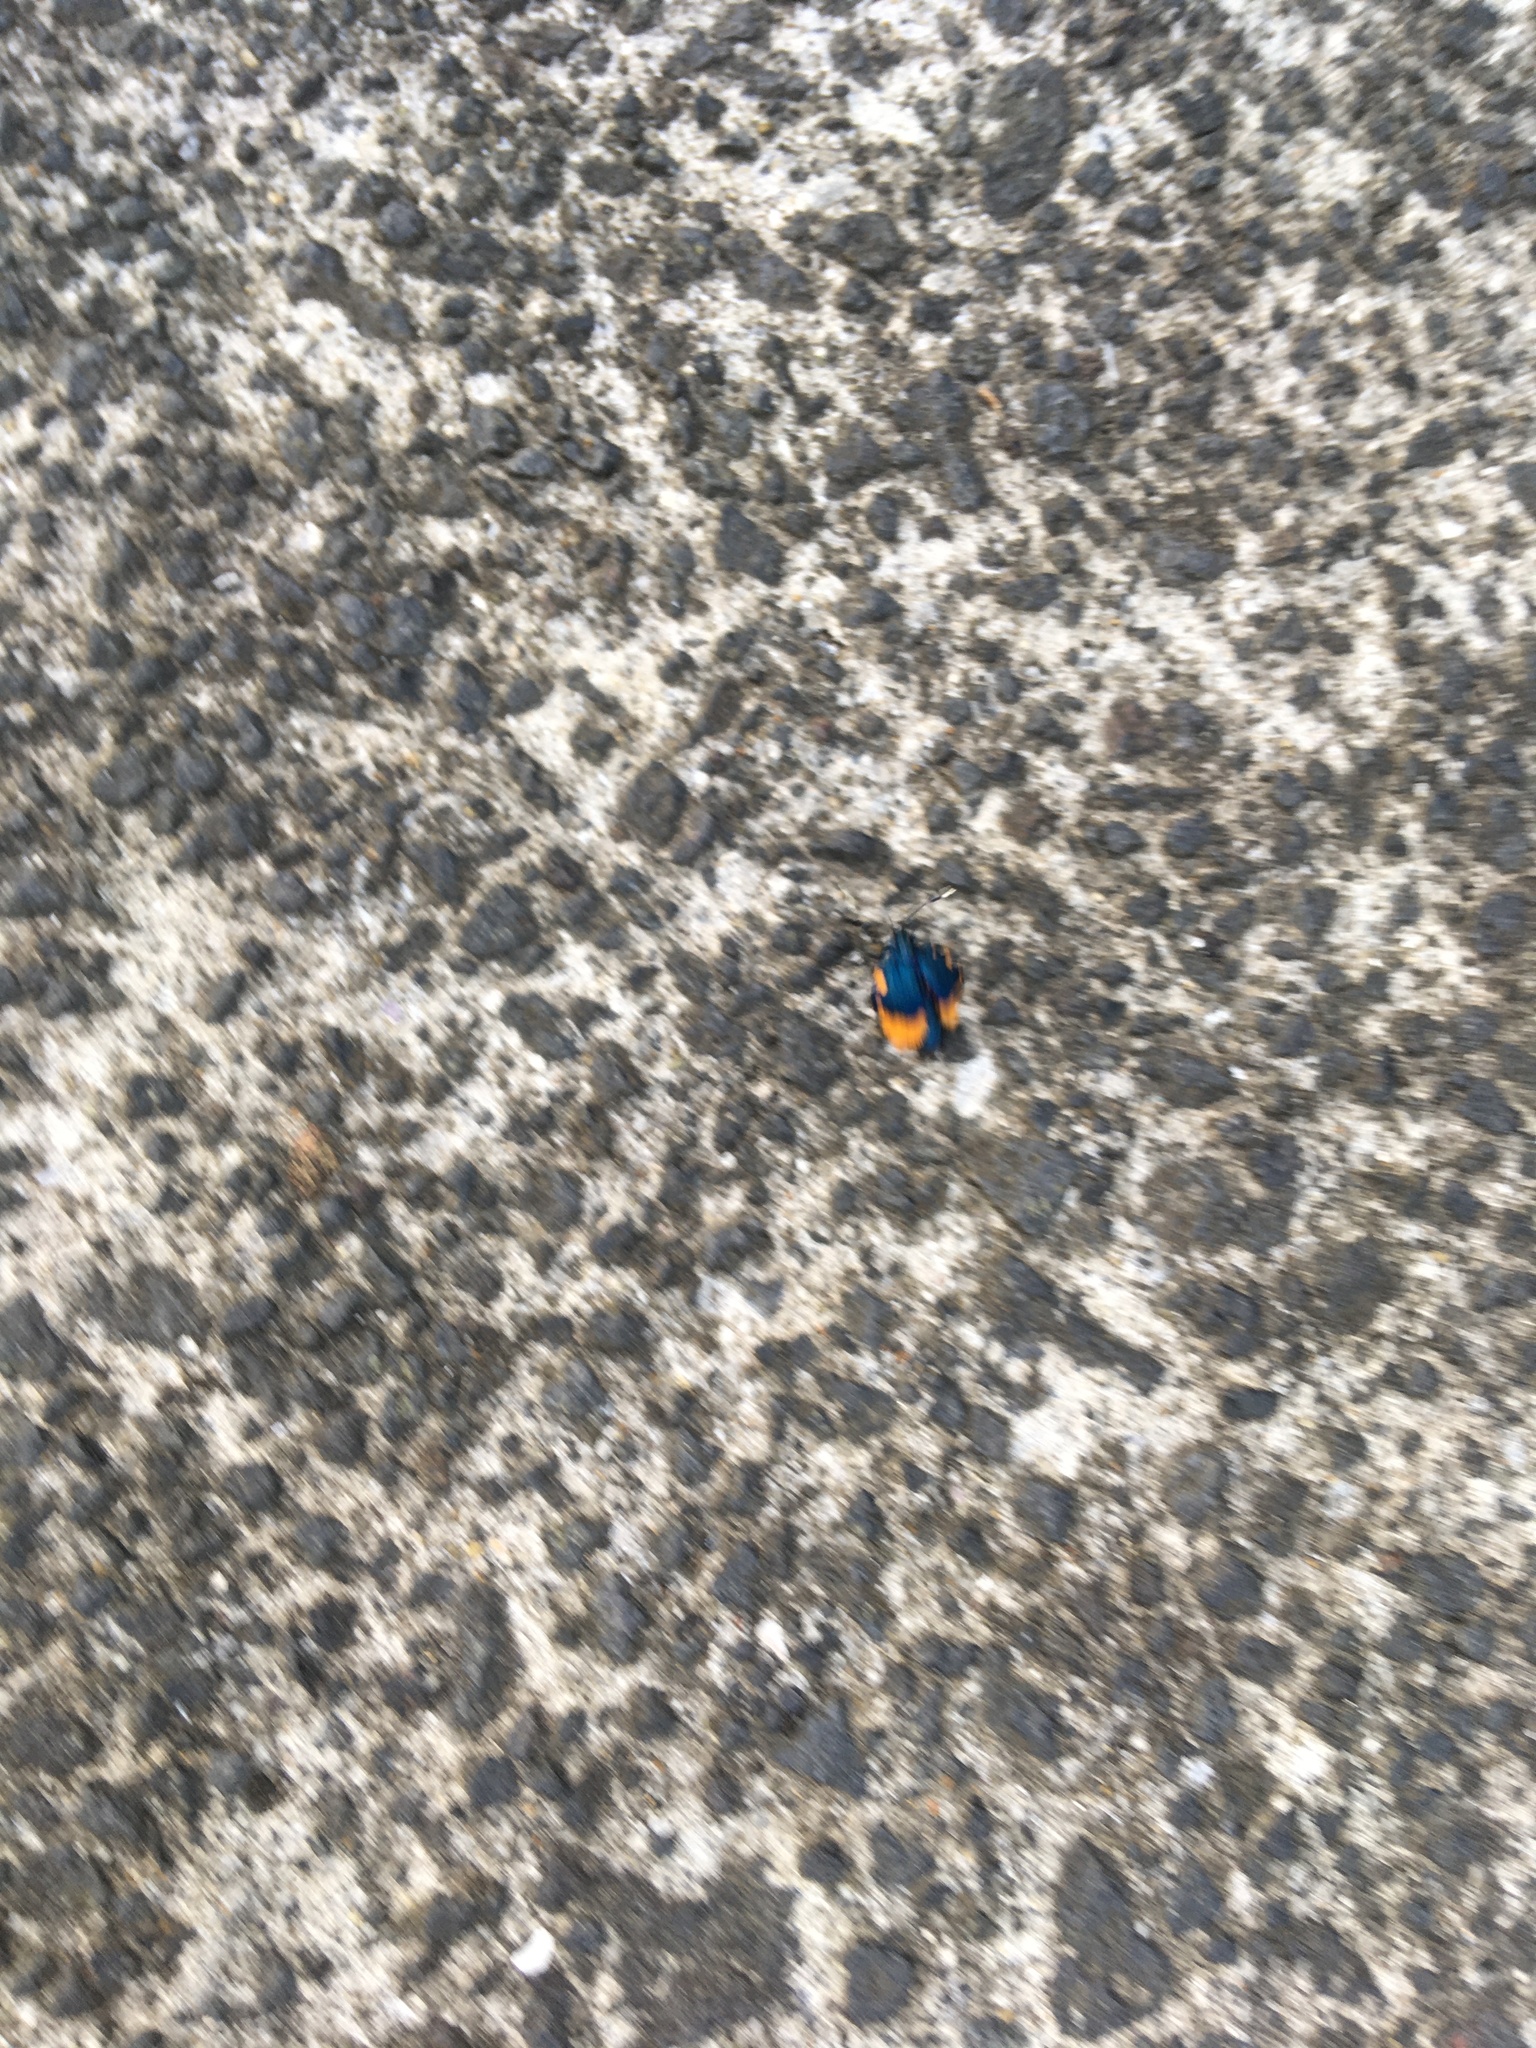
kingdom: Animalia
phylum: Arthropoda
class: Insecta
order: Lepidoptera
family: Psychidae
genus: Cebysa
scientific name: Cebysa leucotelus
